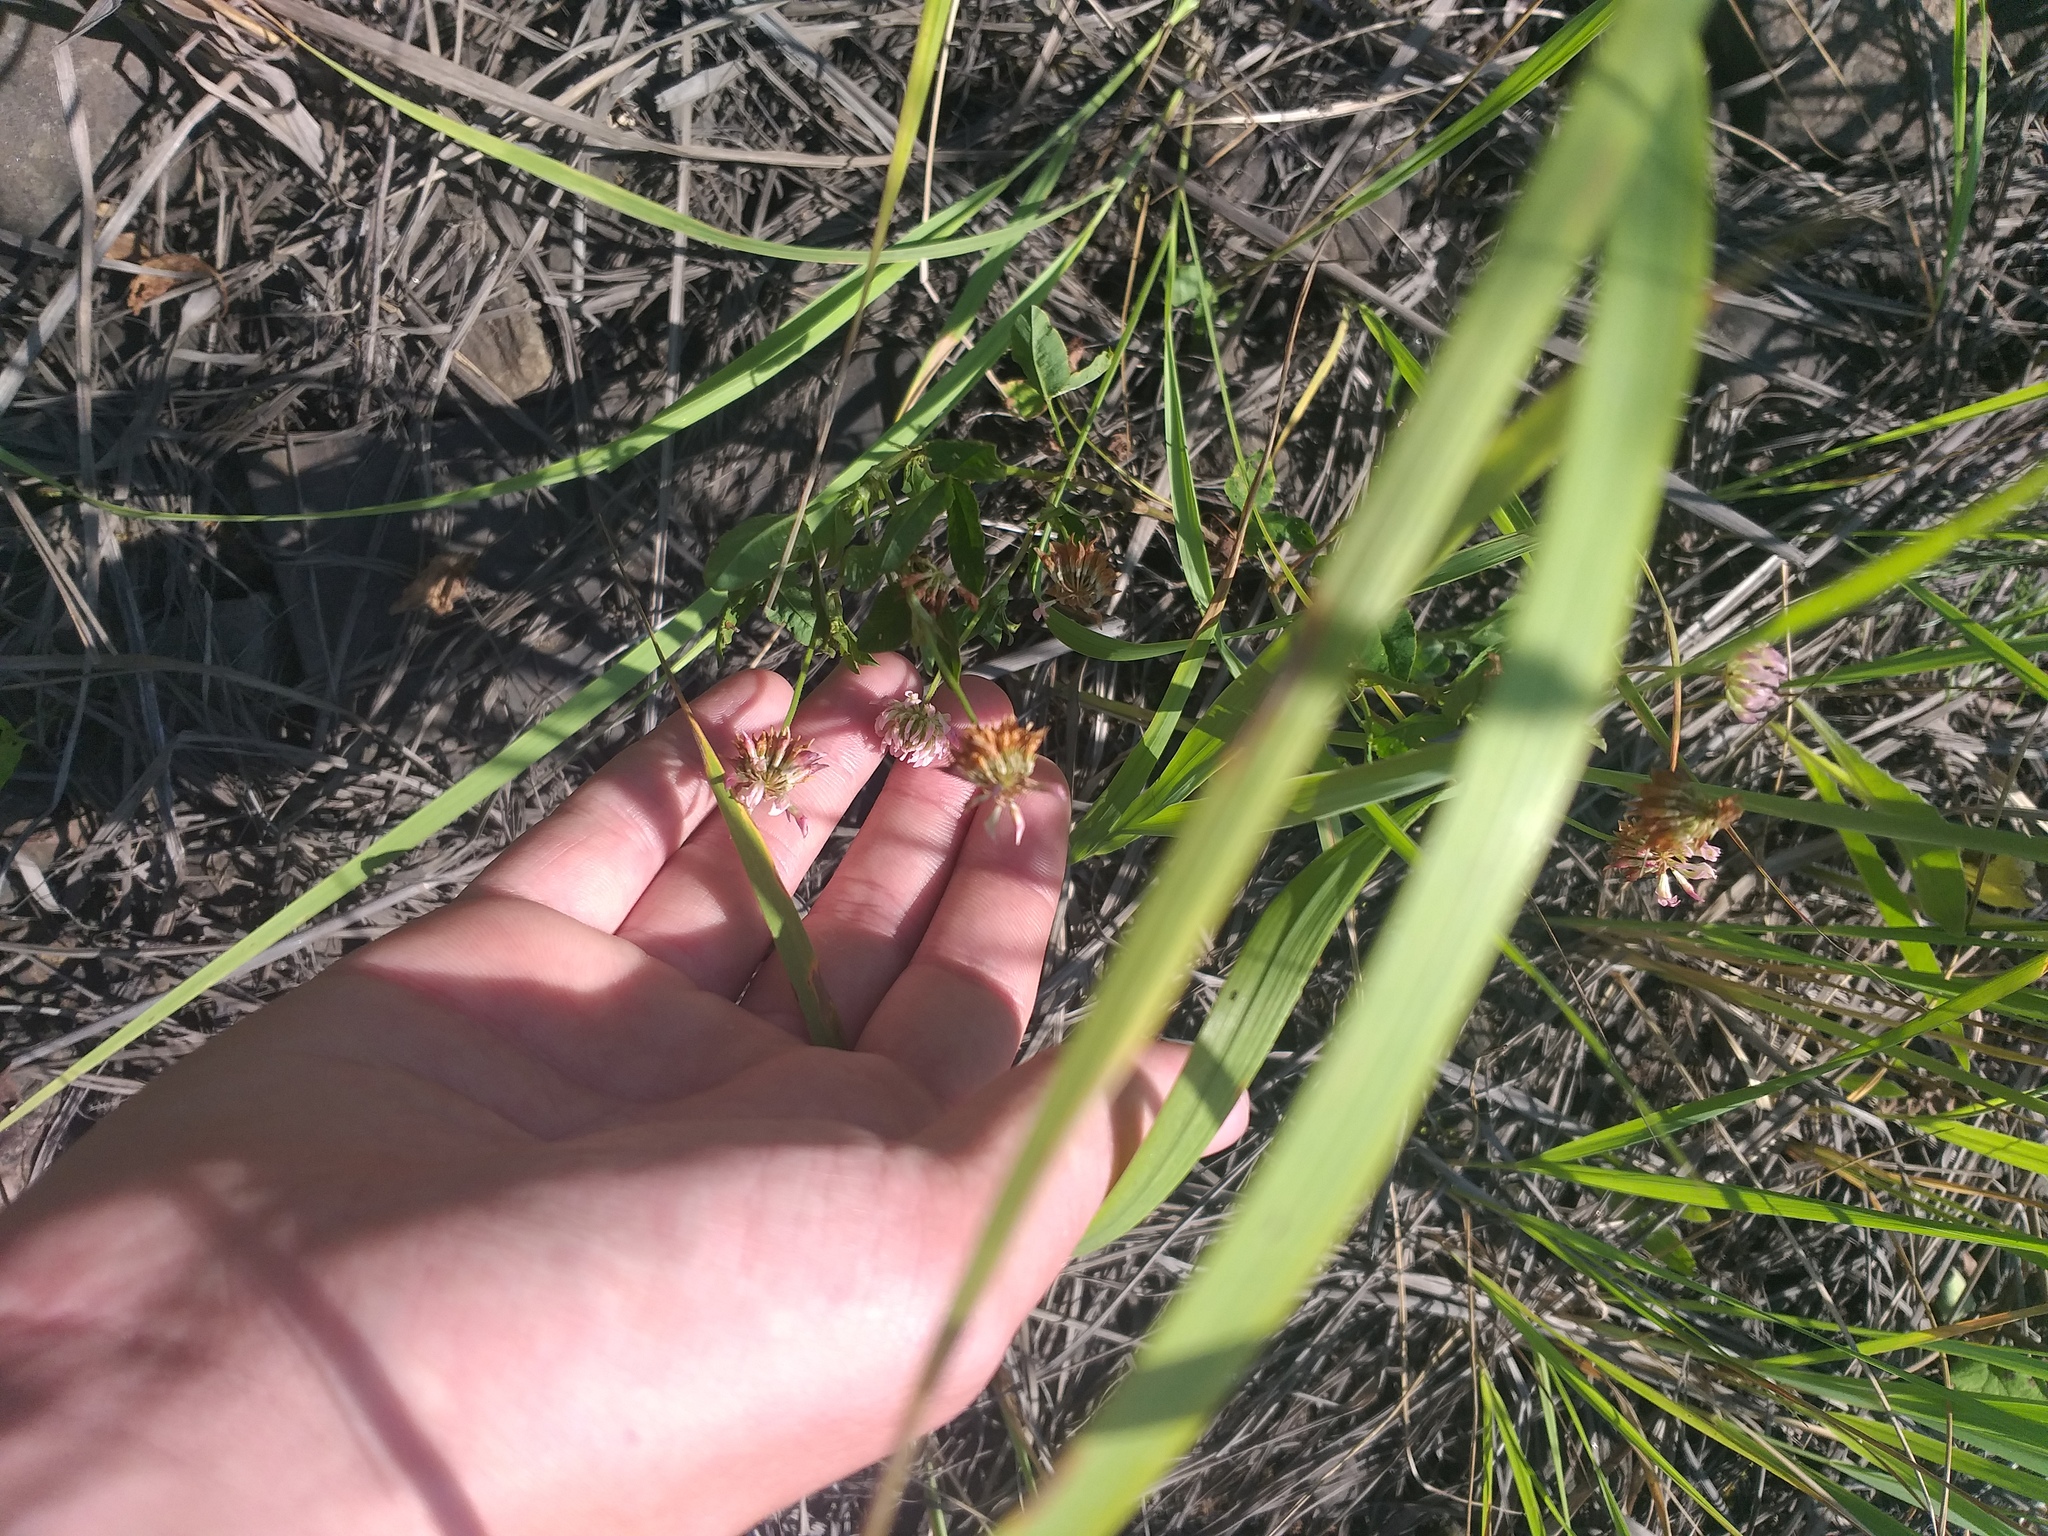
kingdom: Plantae
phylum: Tracheophyta
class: Magnoliopsida
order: Fabales
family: Fabaceae
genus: Trifolium
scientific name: Trifolium hybridum
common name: Alsike clover
